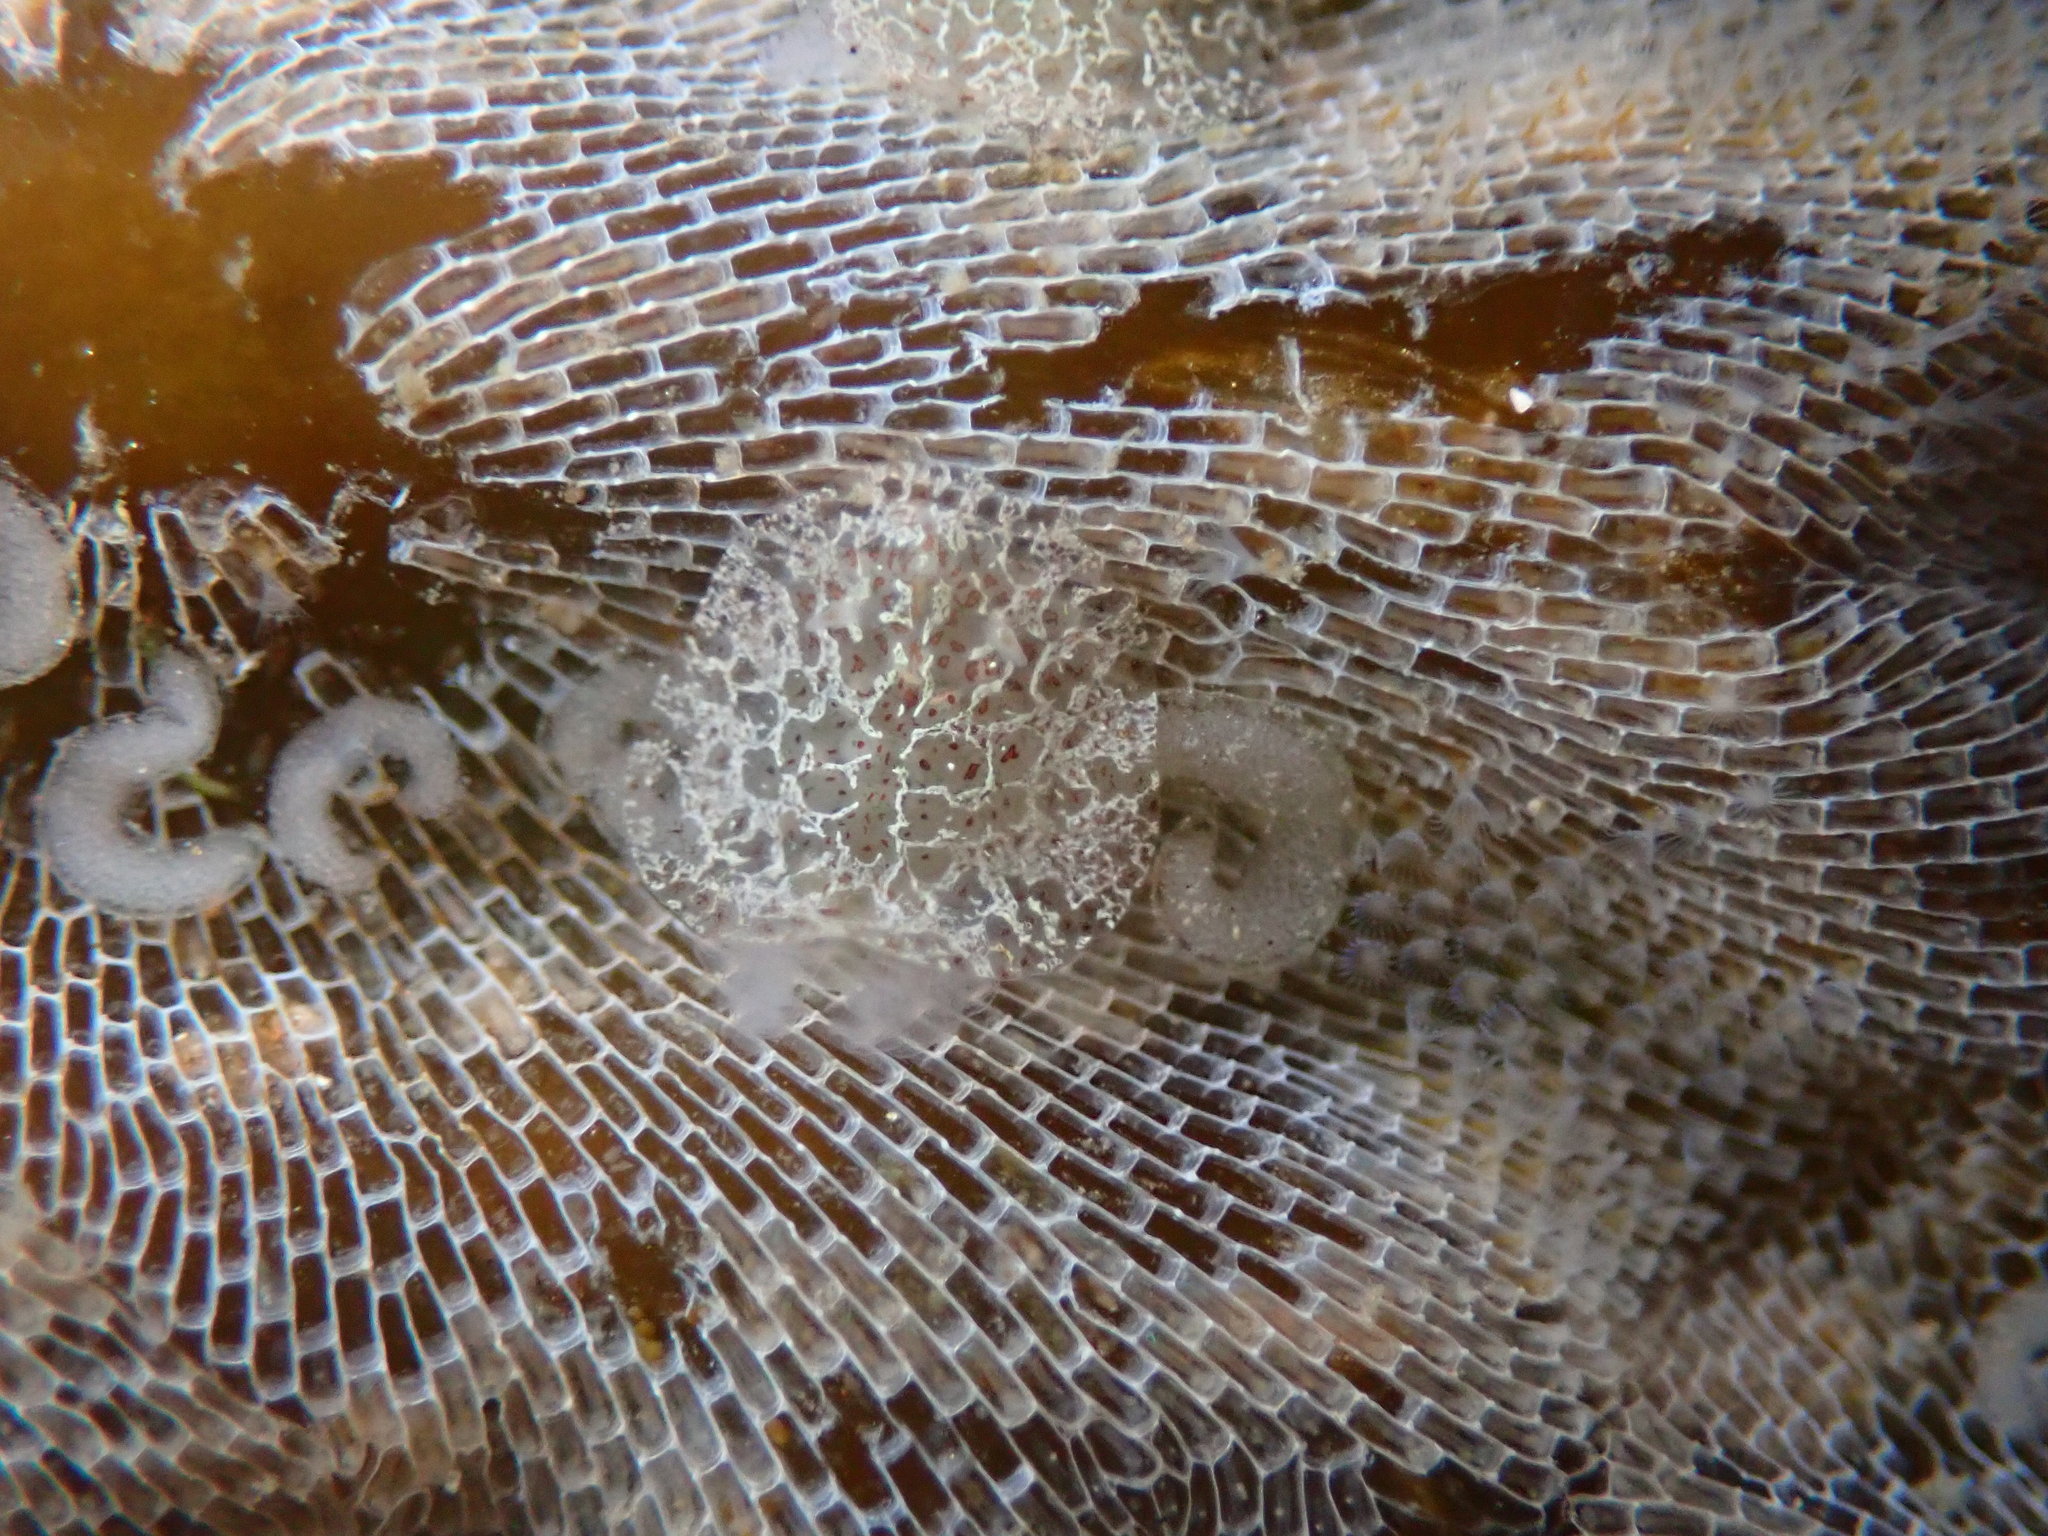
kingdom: Animalia
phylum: Mollusca
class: Gastropoda
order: Nudibranchia
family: Corambidae
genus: Corambe
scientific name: Corambe steinbergae
